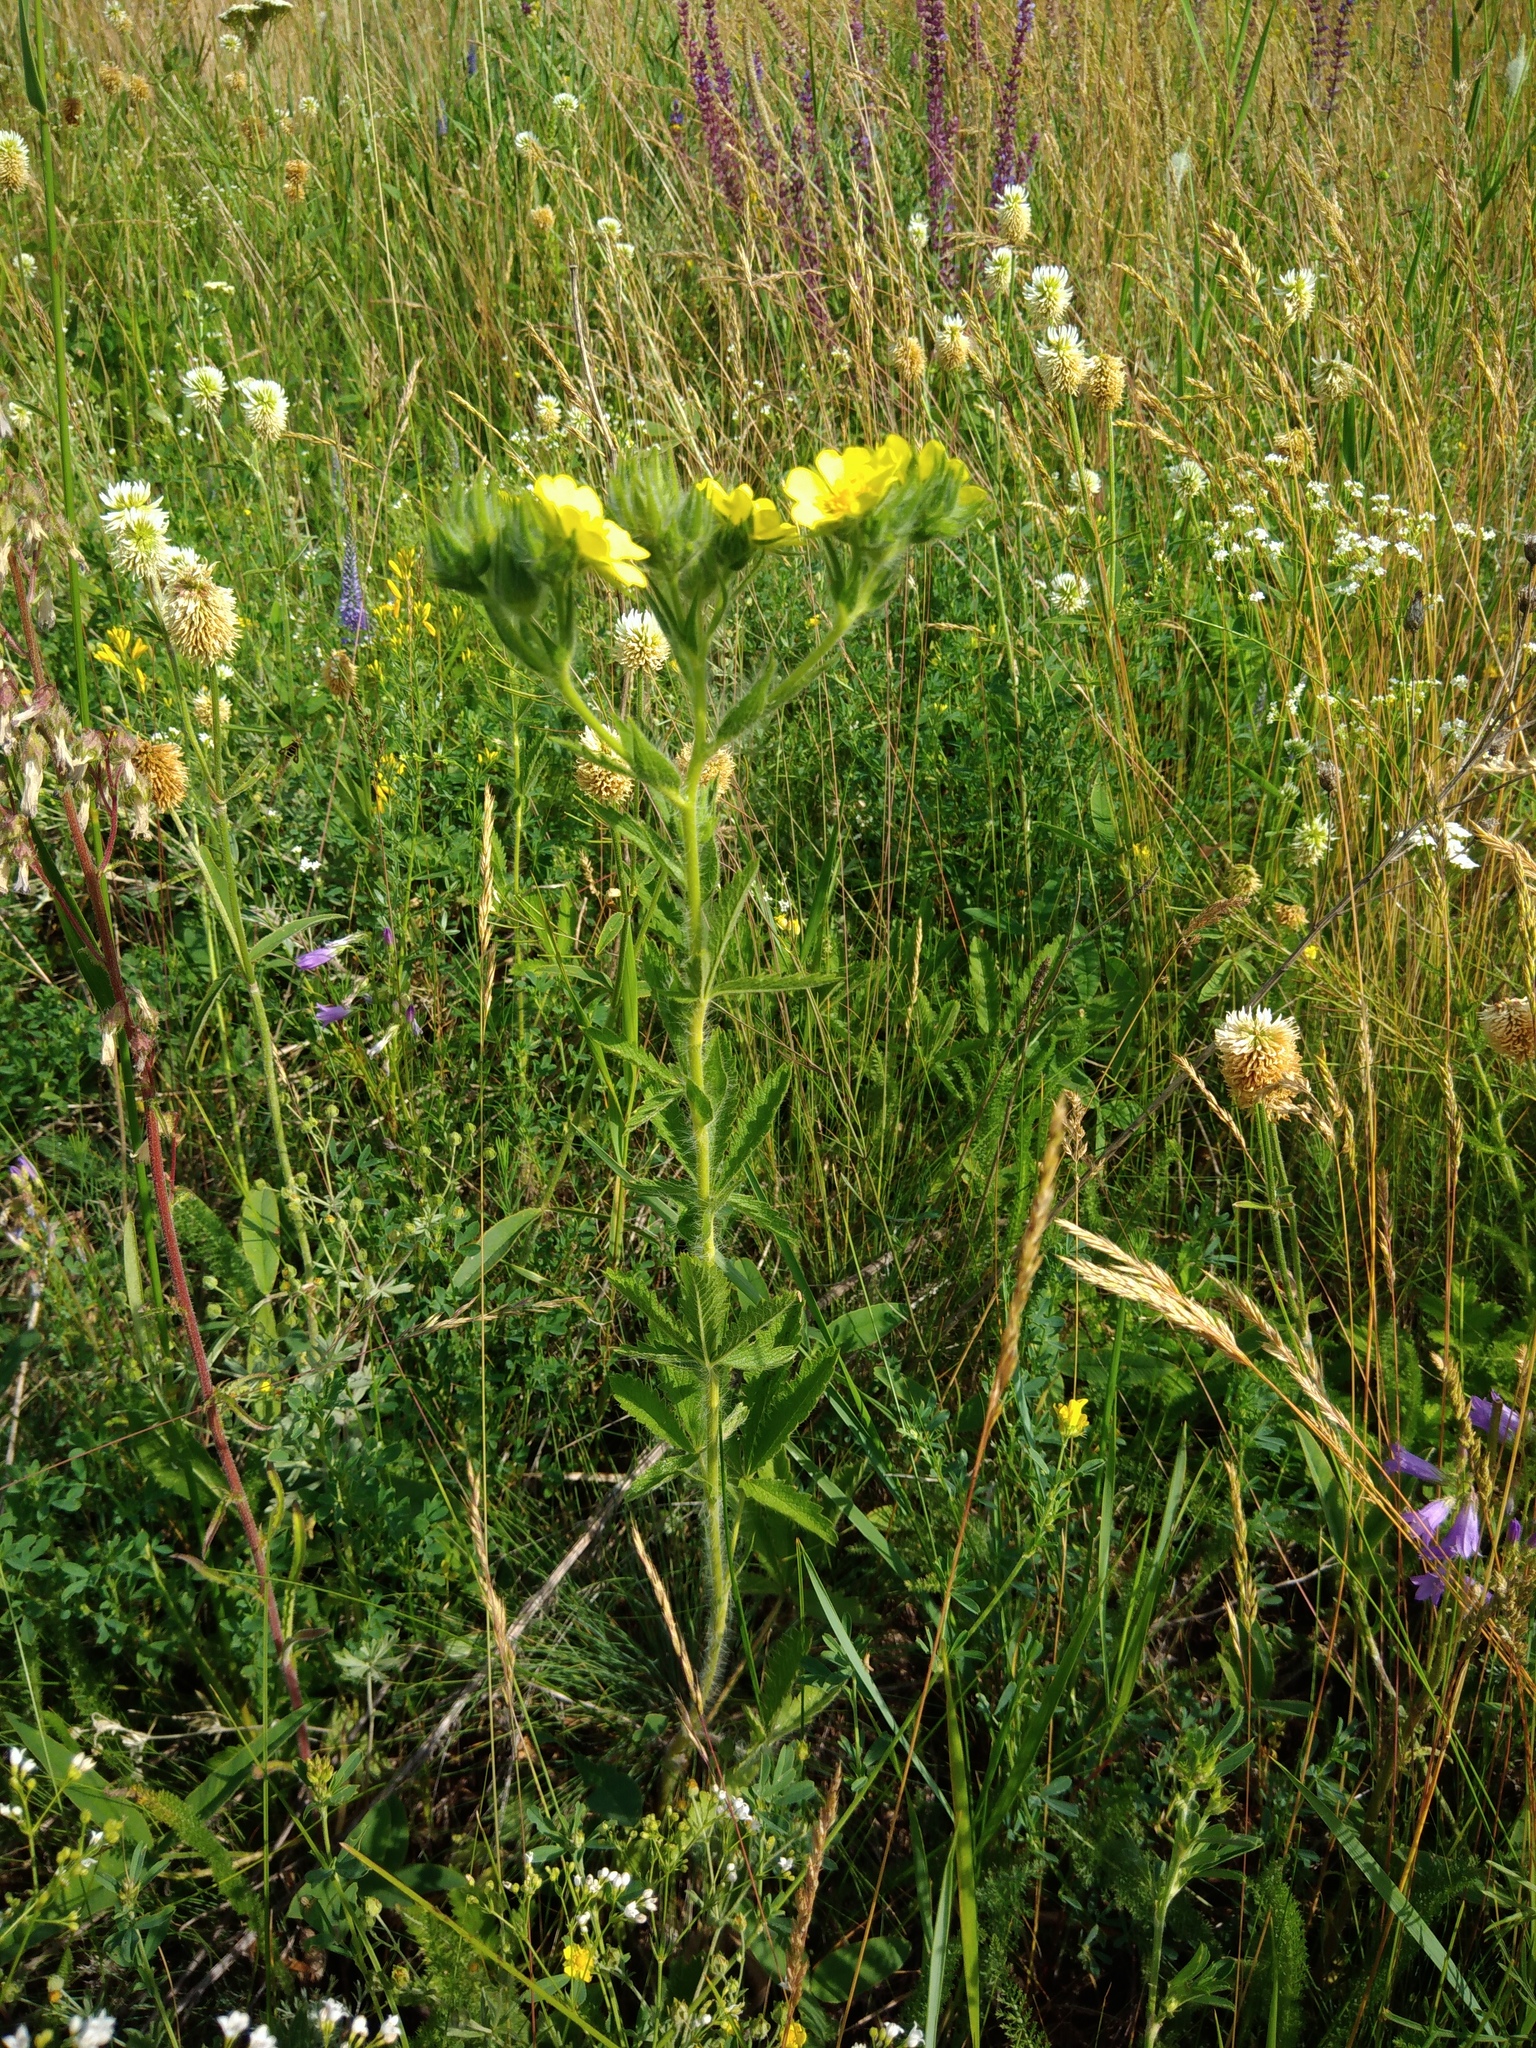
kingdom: Plantae
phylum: Tracheophyta
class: Magnoliopsida
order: Rosales
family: Rosaceae
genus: Potentilla
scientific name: Potentilla recta
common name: Sulphur cinquefoil
